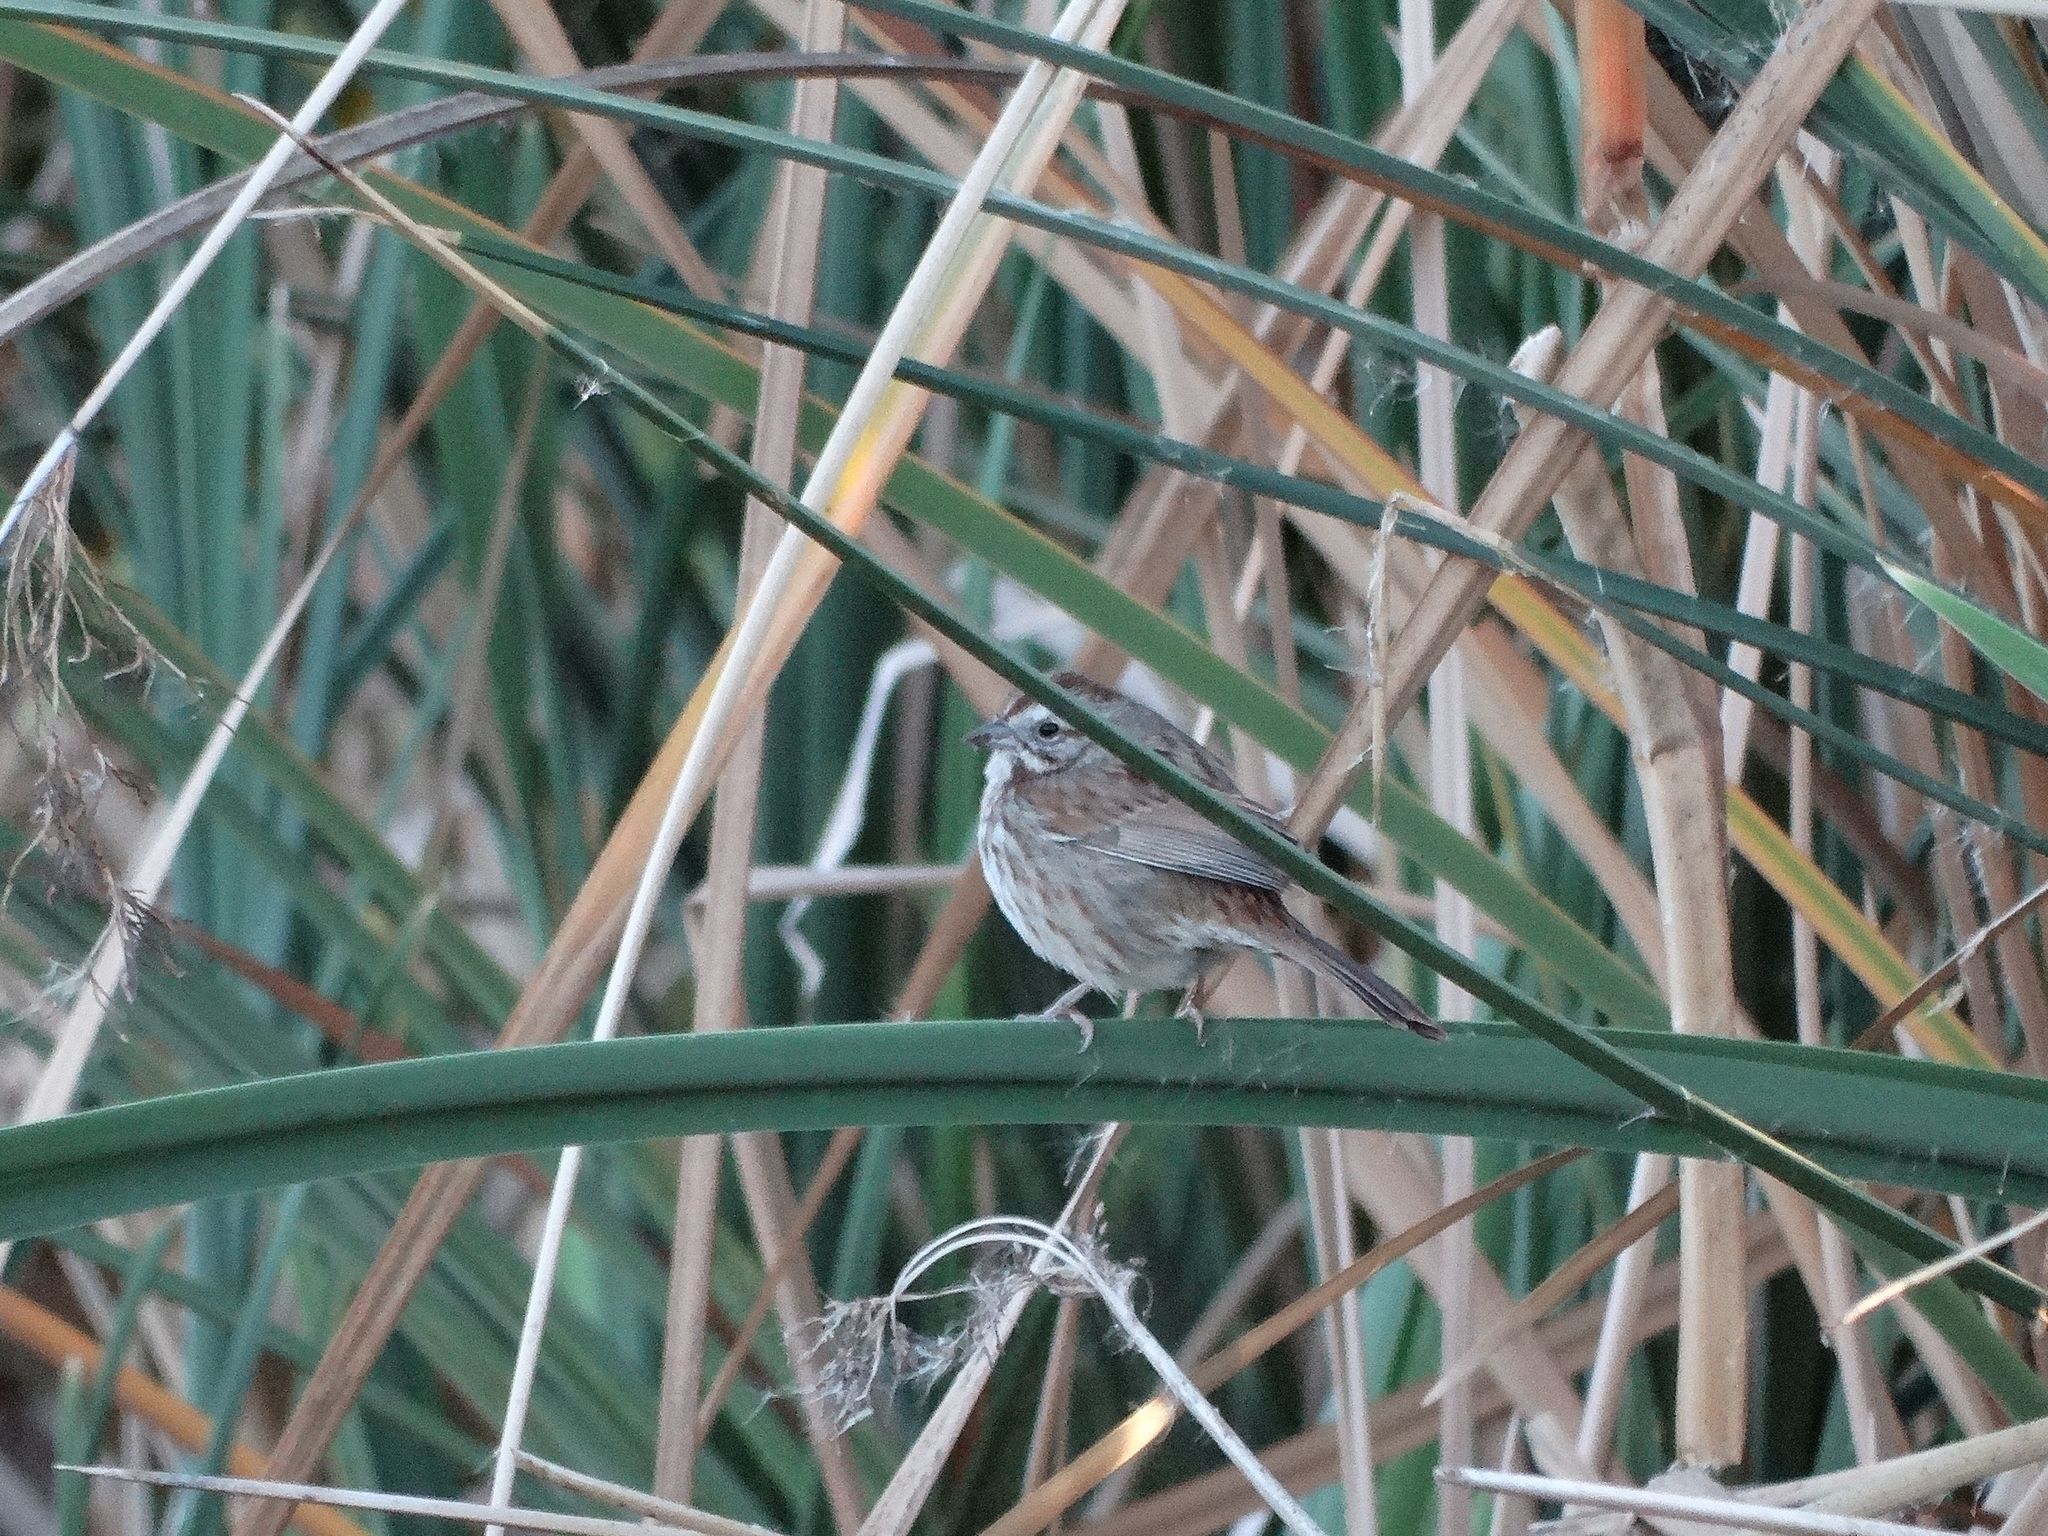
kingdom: Animalia
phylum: Chordata
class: Aves
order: Passeriformes
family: Passerellidae
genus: Melospiza
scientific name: Melospiza melodia
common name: Song sparrow
